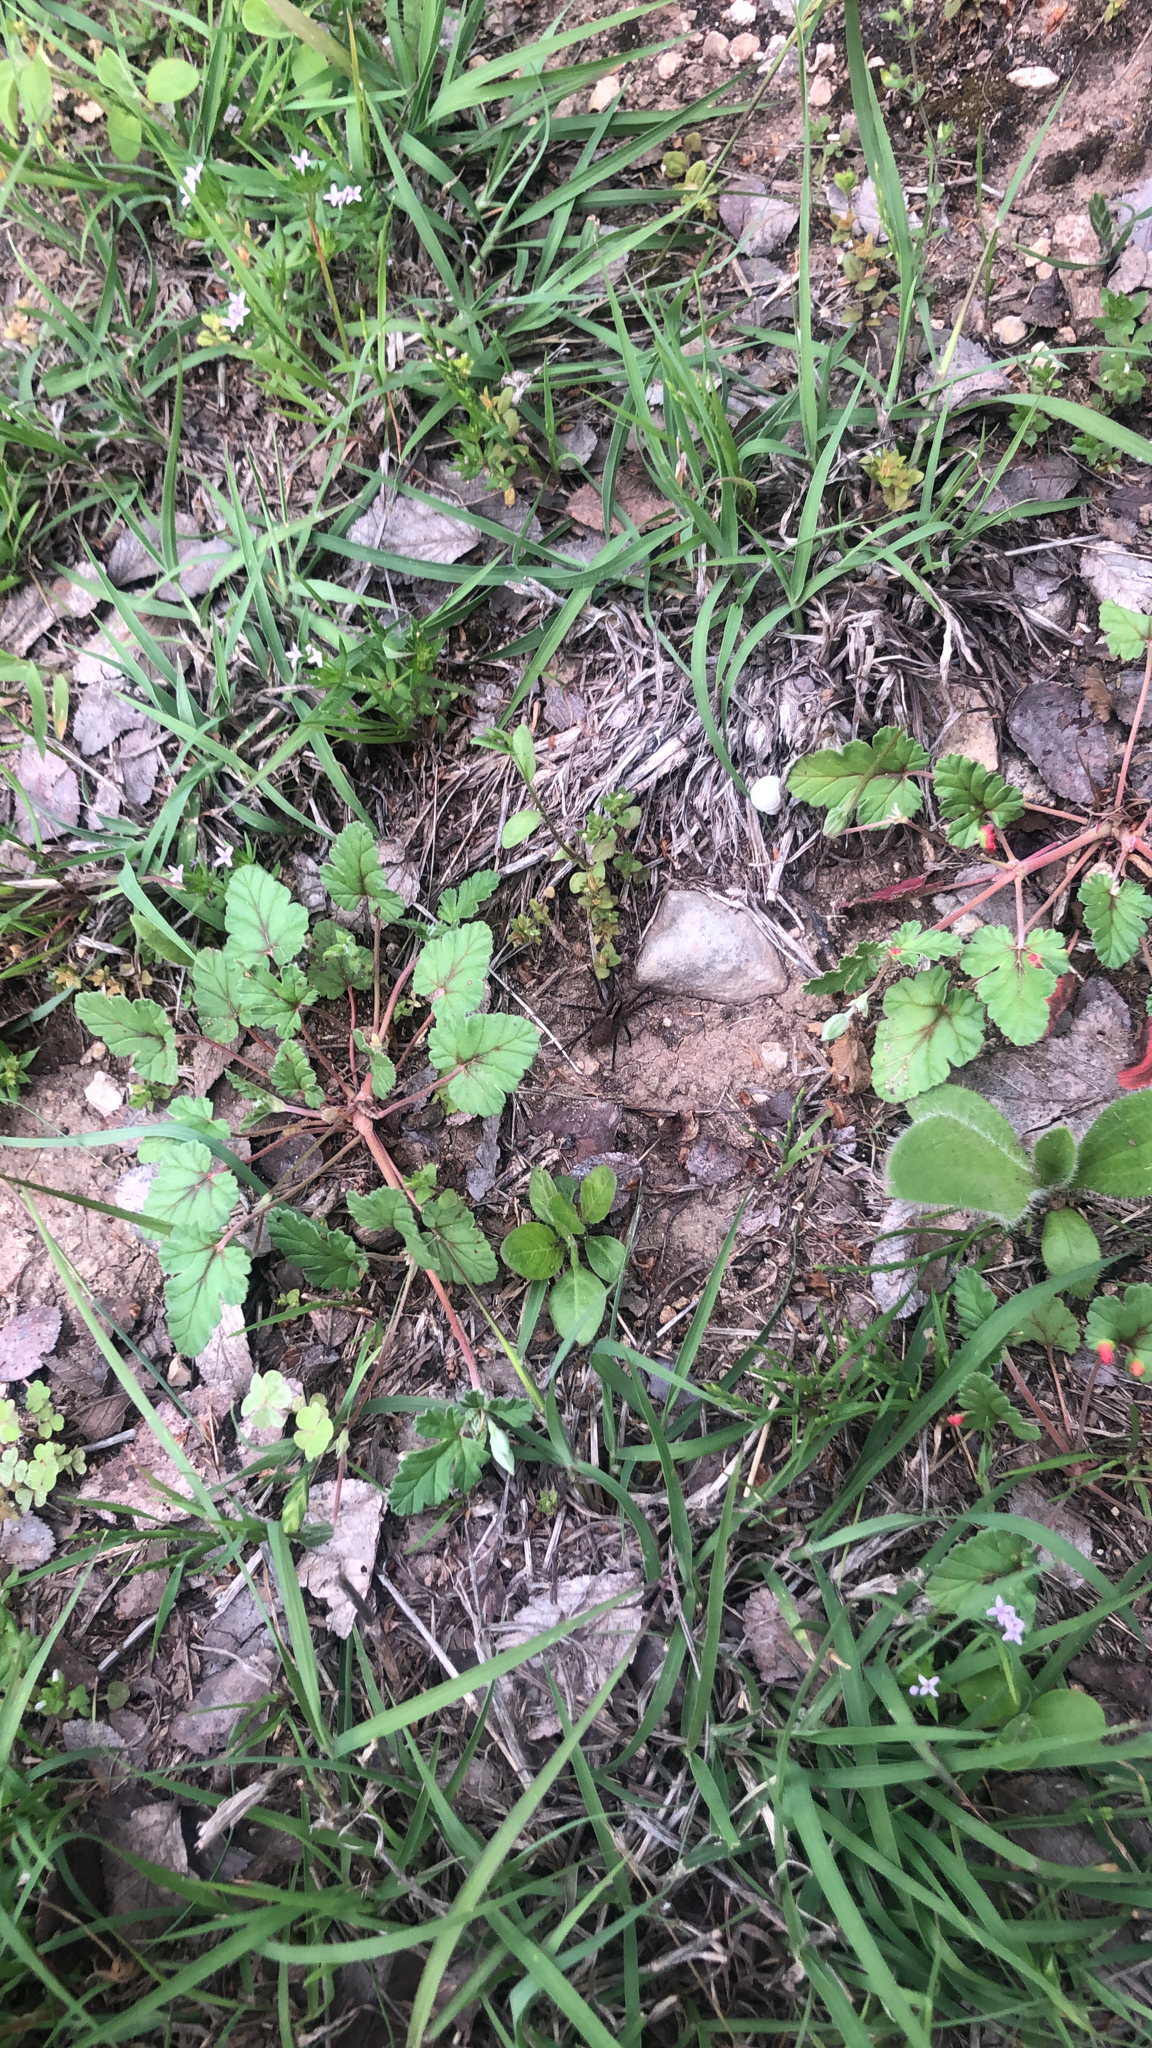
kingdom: Plantae
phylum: Tracheophyta
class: Magnoliopsida
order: Geraniales
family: Geraniaceae
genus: Erodium
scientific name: Erodium texanum
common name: Texas stork's-bill
